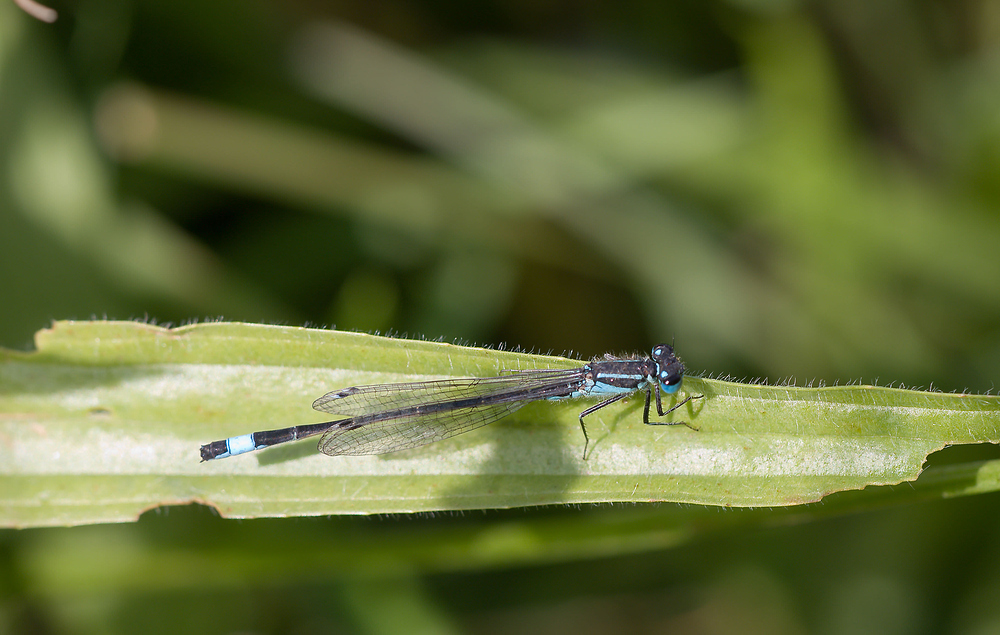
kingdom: Animalia
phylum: Arthropoda
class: Insecta
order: Odonata
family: Coenagrionidae
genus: Ischnura
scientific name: Ischnura elegans
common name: Blue-tailed damselfly
